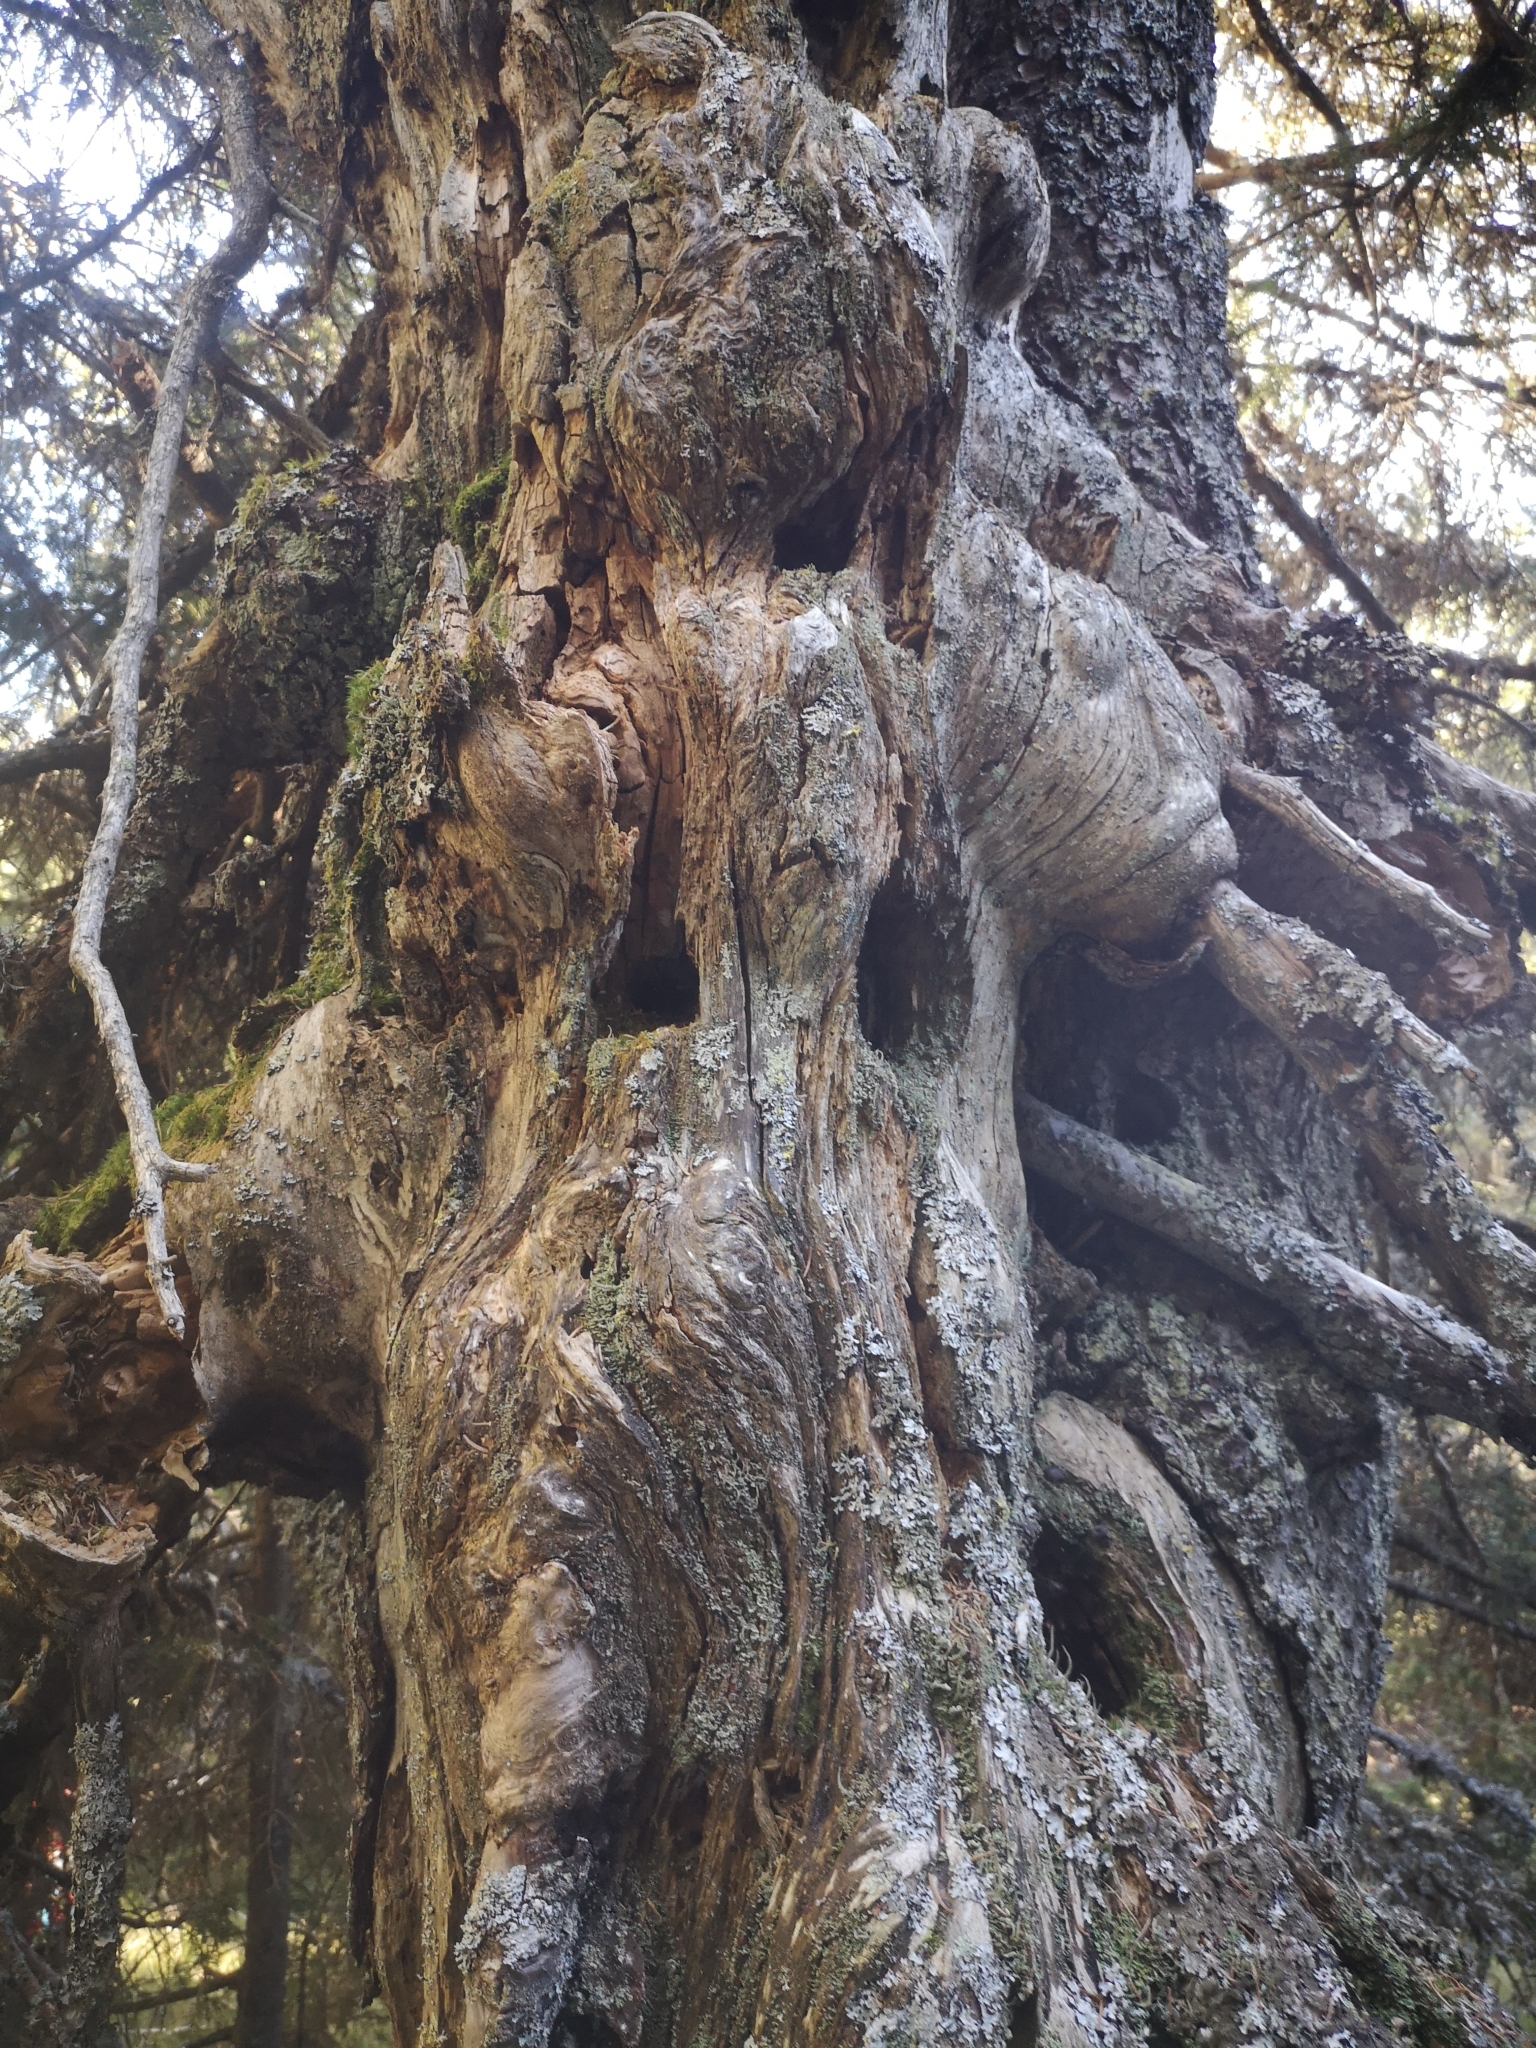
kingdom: Animalia
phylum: Chordata
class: Aves
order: Piciformes
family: Picidae
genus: Dryocopus
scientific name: Dryocopus martius
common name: Black woodpecker
